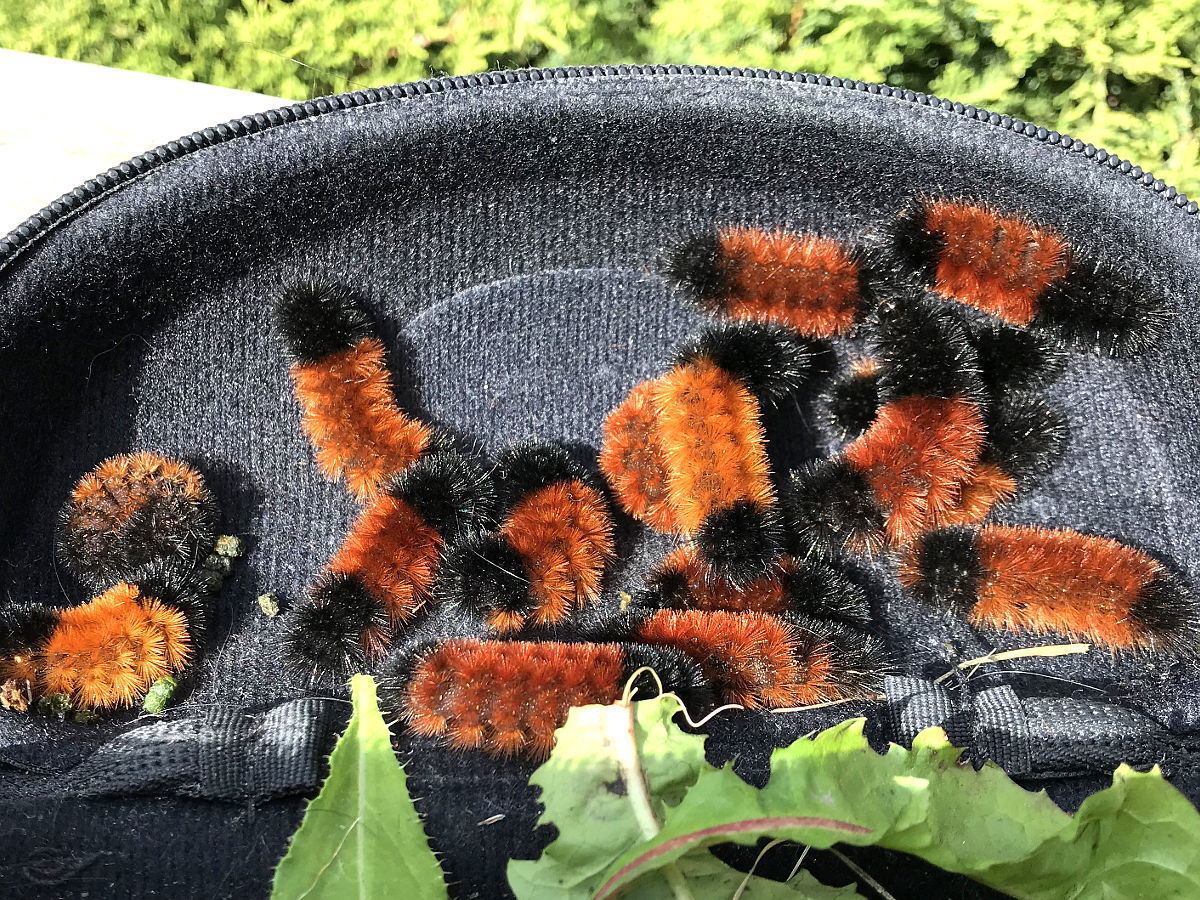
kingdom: Animalia
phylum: Arthropoda
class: Insecta
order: Lepidoptera
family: Erebidae
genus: Pyrrharctia
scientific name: Pyrrharctia isabella
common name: Isabella tiger moth
